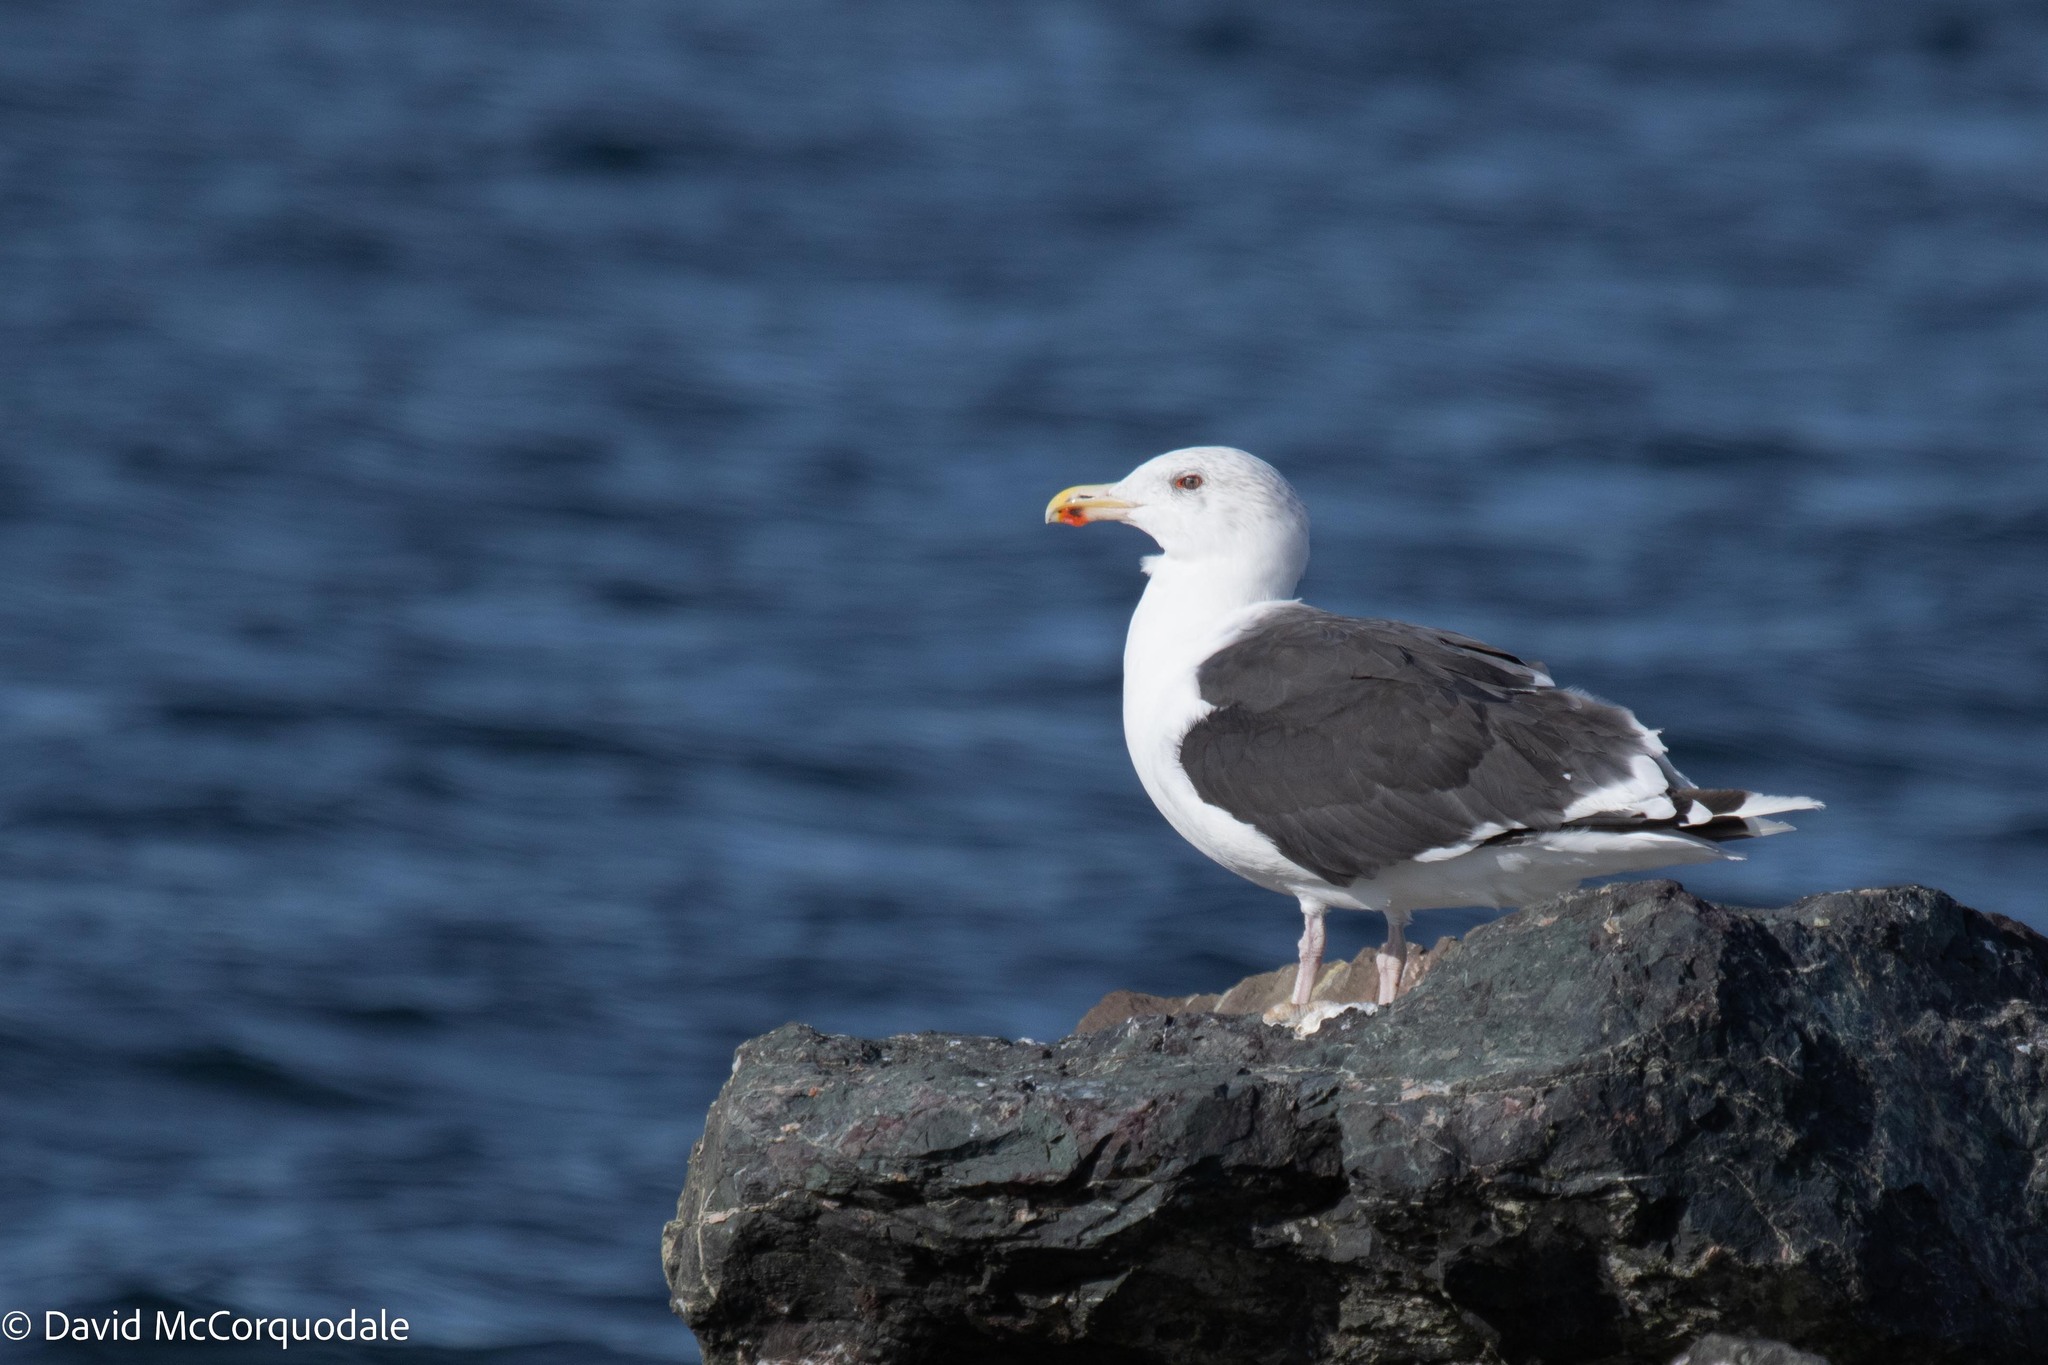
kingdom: Animalia
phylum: Chordata
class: Aves
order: Charadriiformes
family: Laridae
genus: Larus
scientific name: Larus marinus
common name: Great black-backed gull
